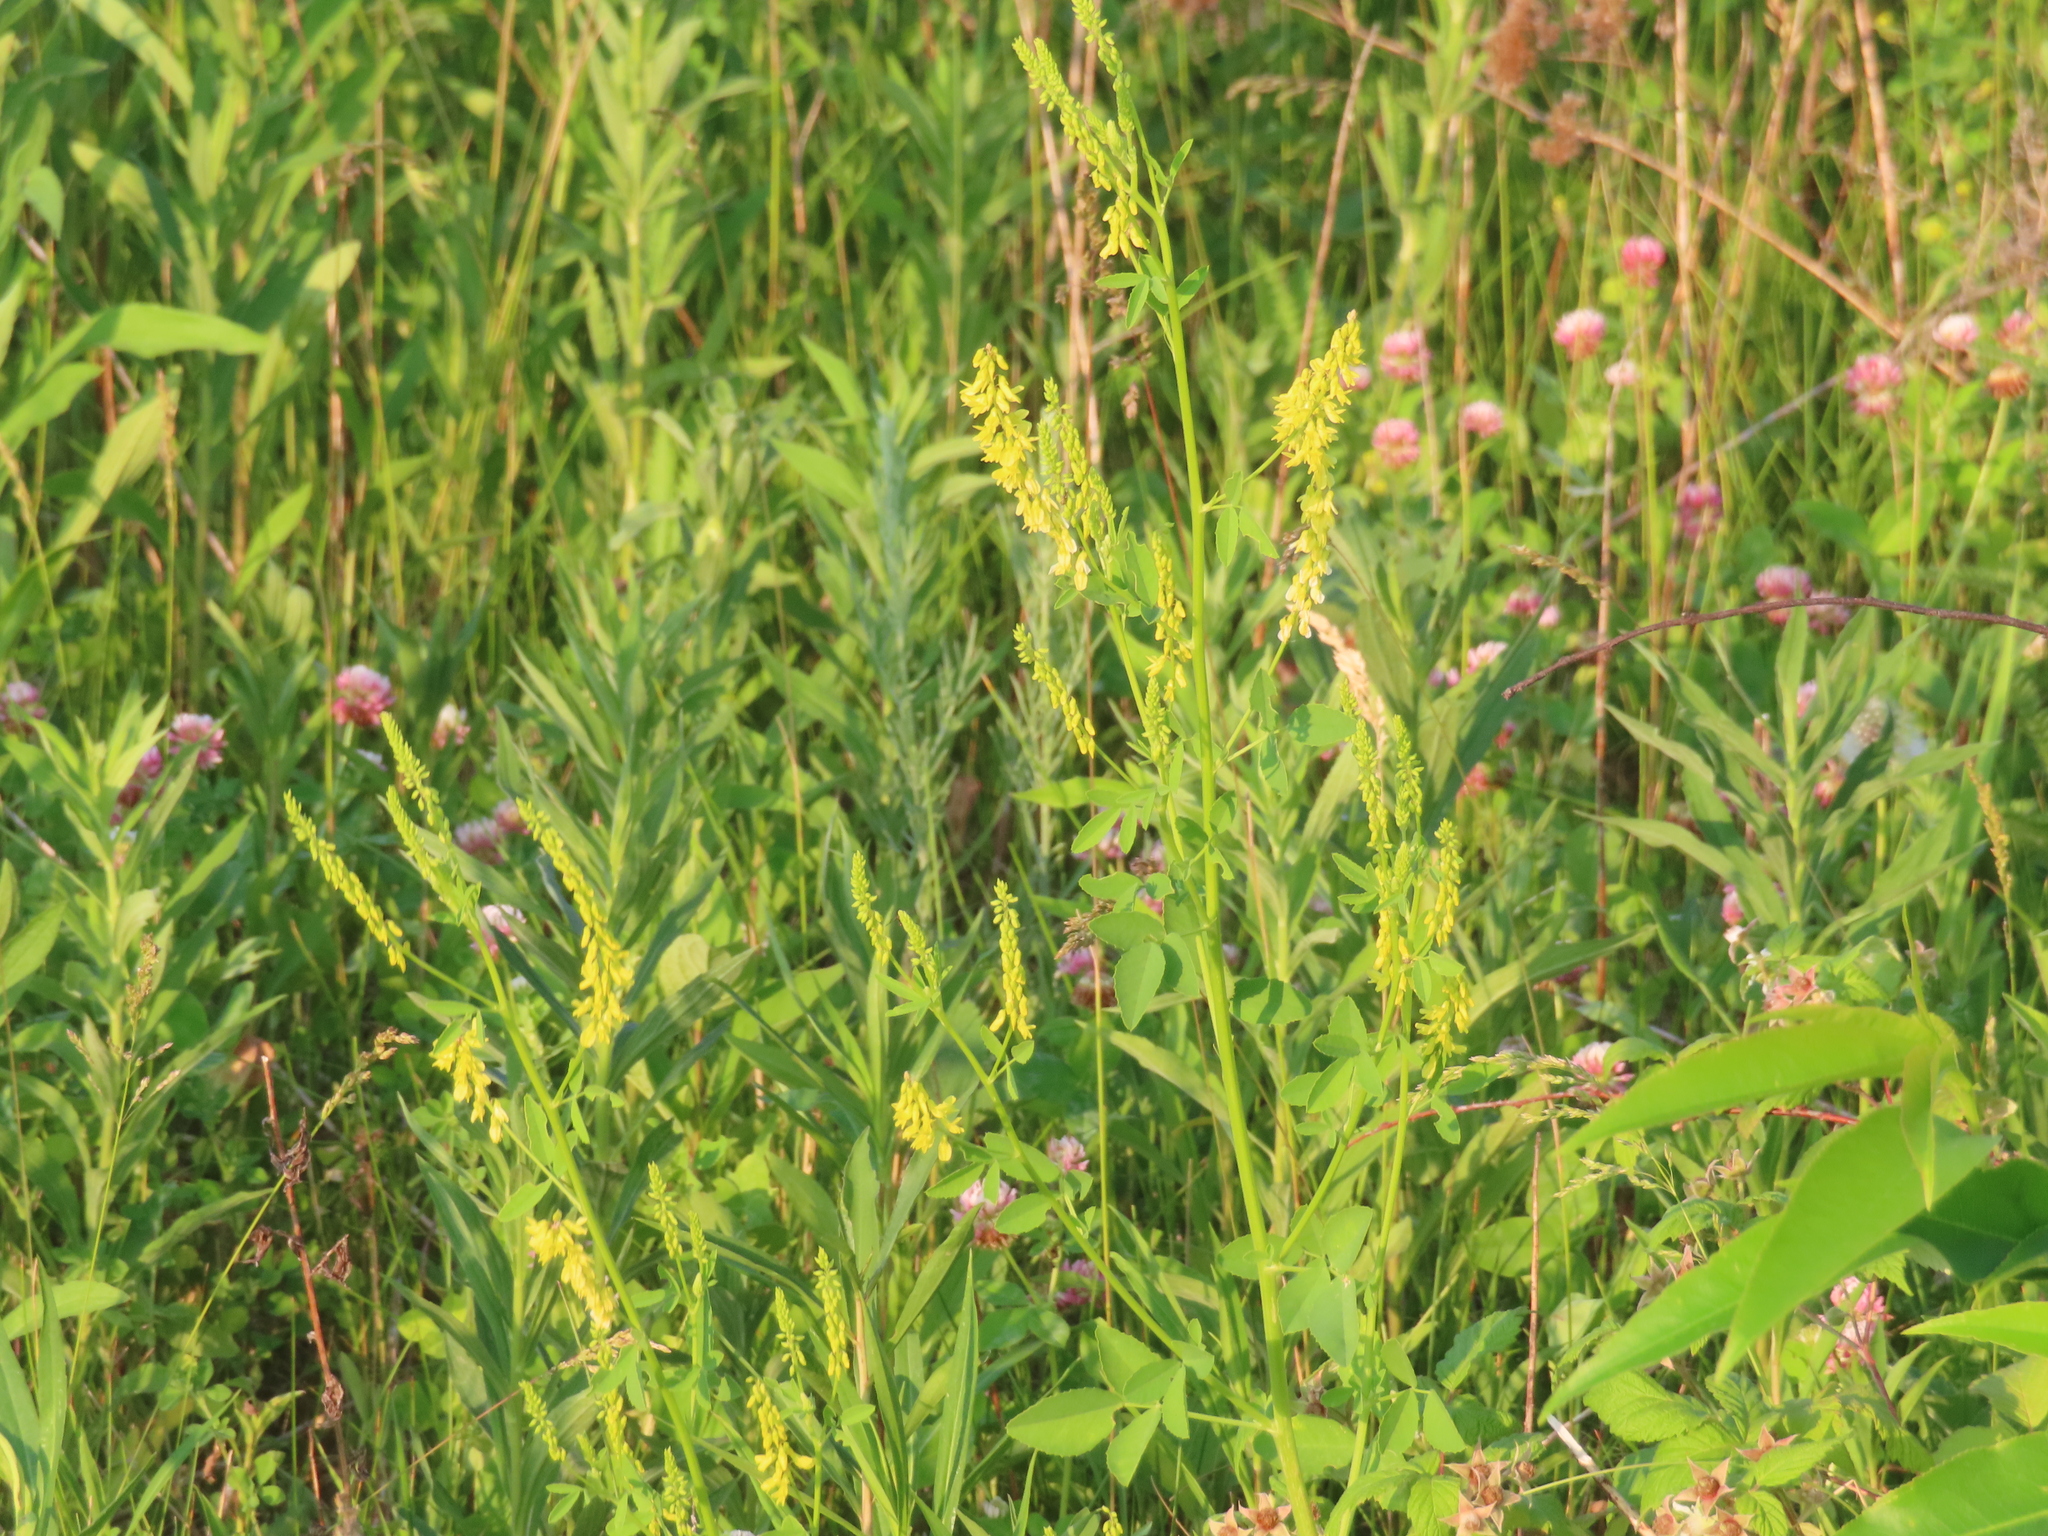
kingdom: Plantae
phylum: Tracheophyta
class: Magnoliopsida
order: Fabales
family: Fabaceae
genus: Melilotus
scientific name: Melilotus officinalis
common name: Sweetclover
